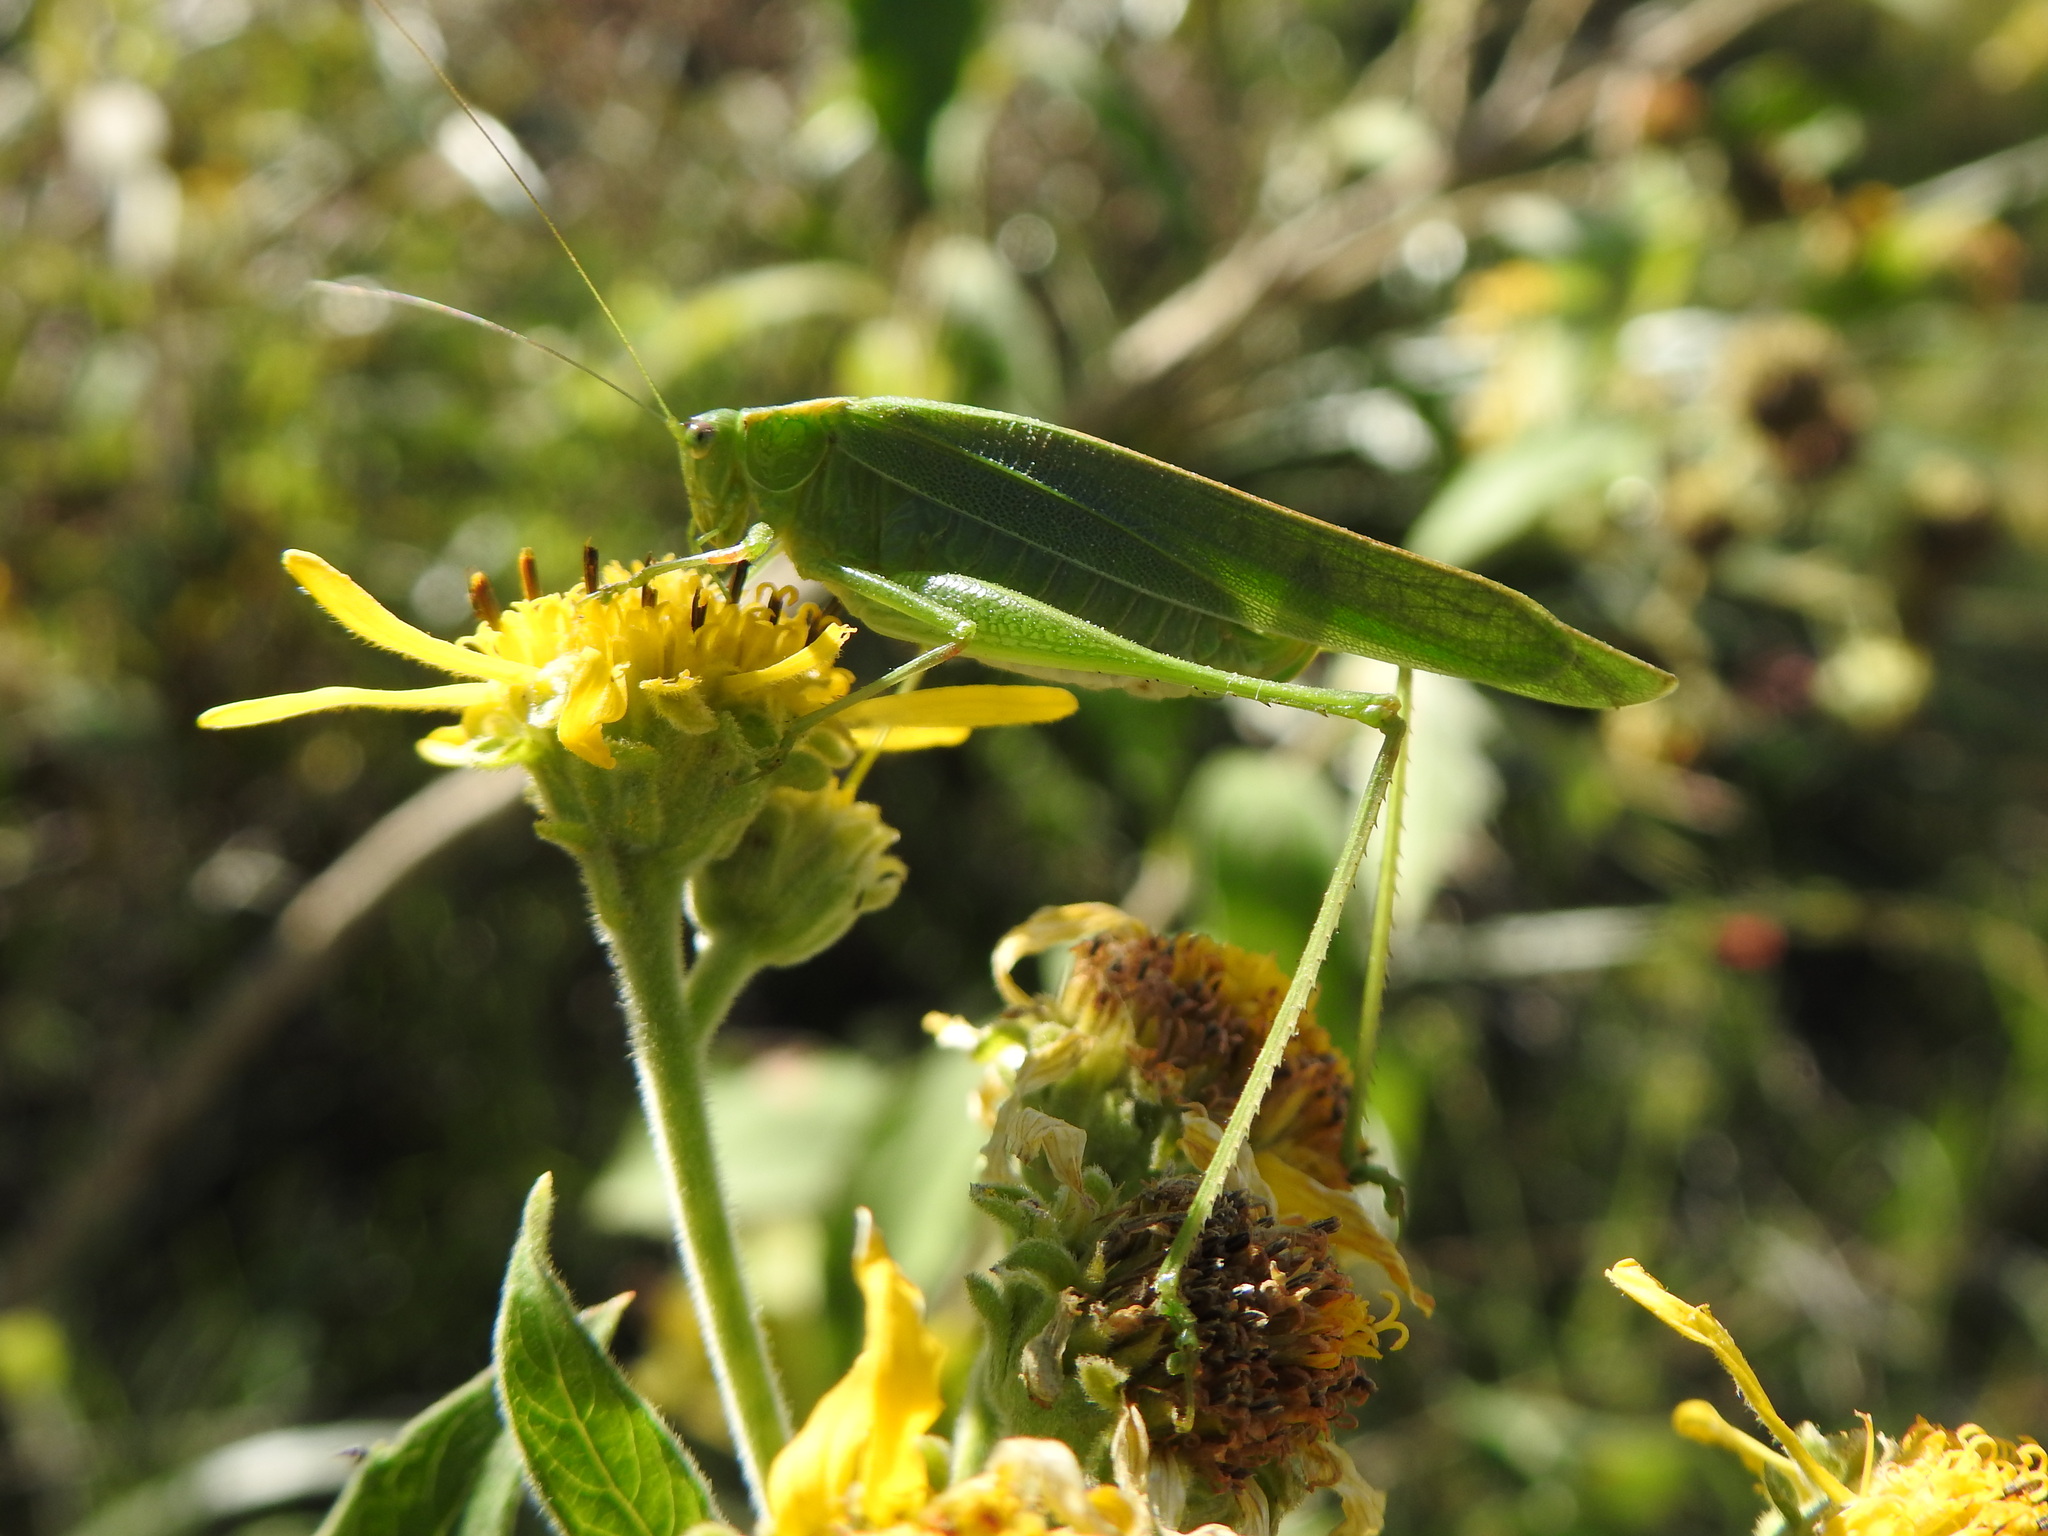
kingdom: Animalia
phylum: Arthropoda
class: Insecta
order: Orthoptera
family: Tettigoniidae
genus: Ligocatinus
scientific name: Ligocatinus spinatus
